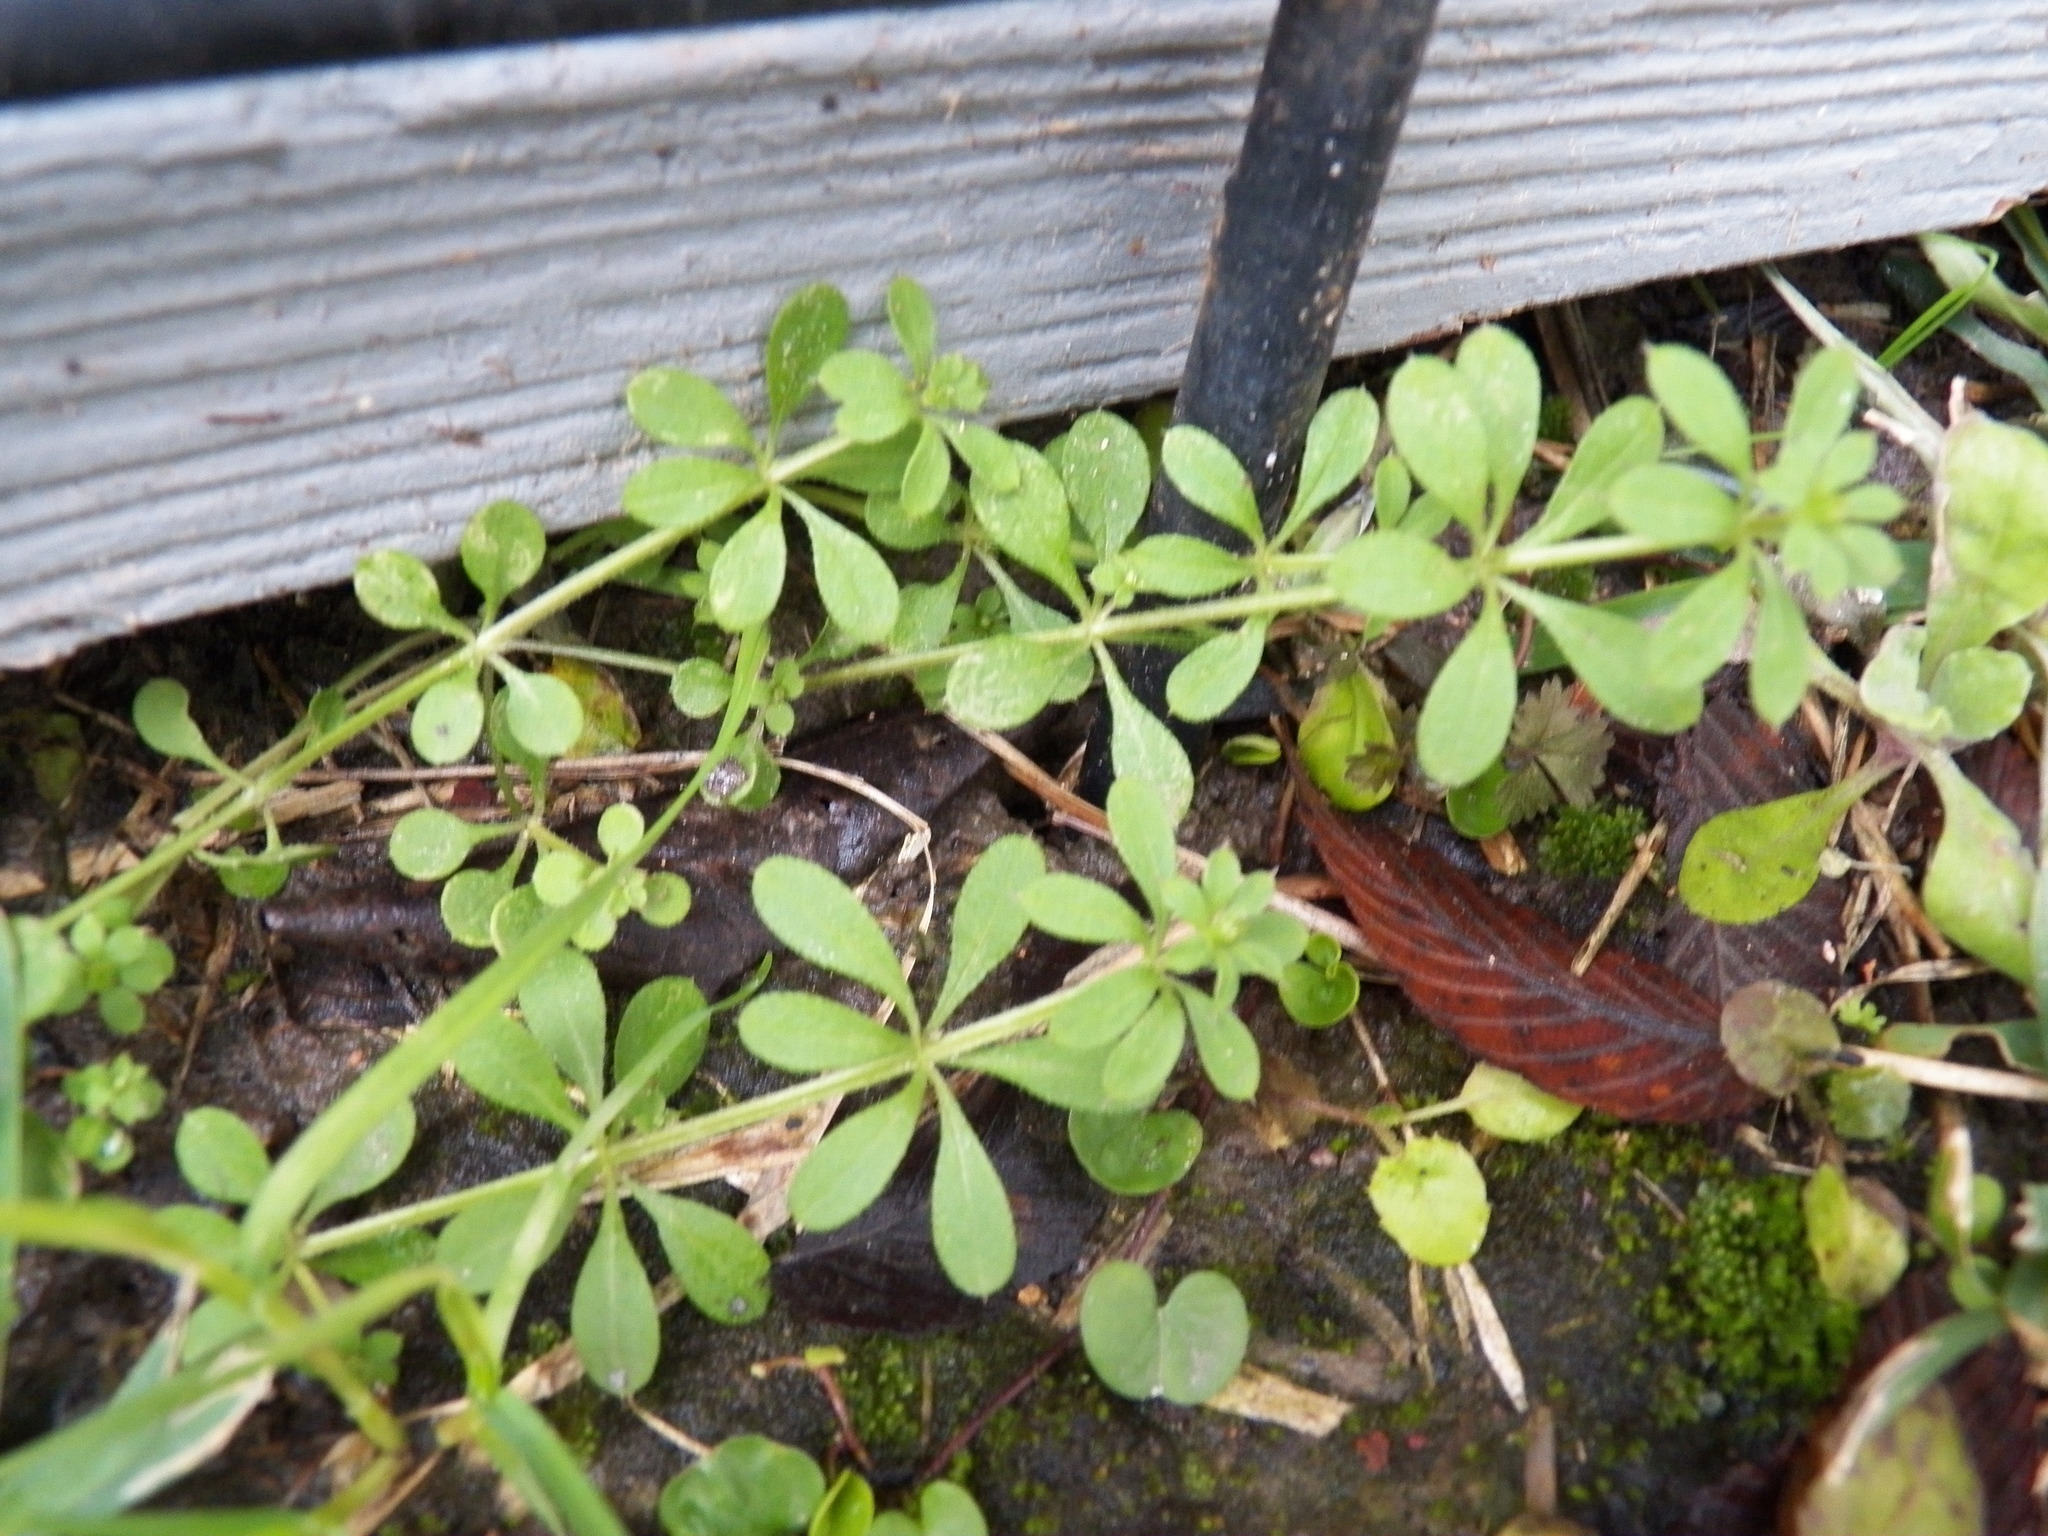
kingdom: Plantae
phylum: Tracheophyta
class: Magnoliopsida
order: Gentianales
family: Rubiaceae
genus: Galium
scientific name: Galium aparine
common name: Cleavers
